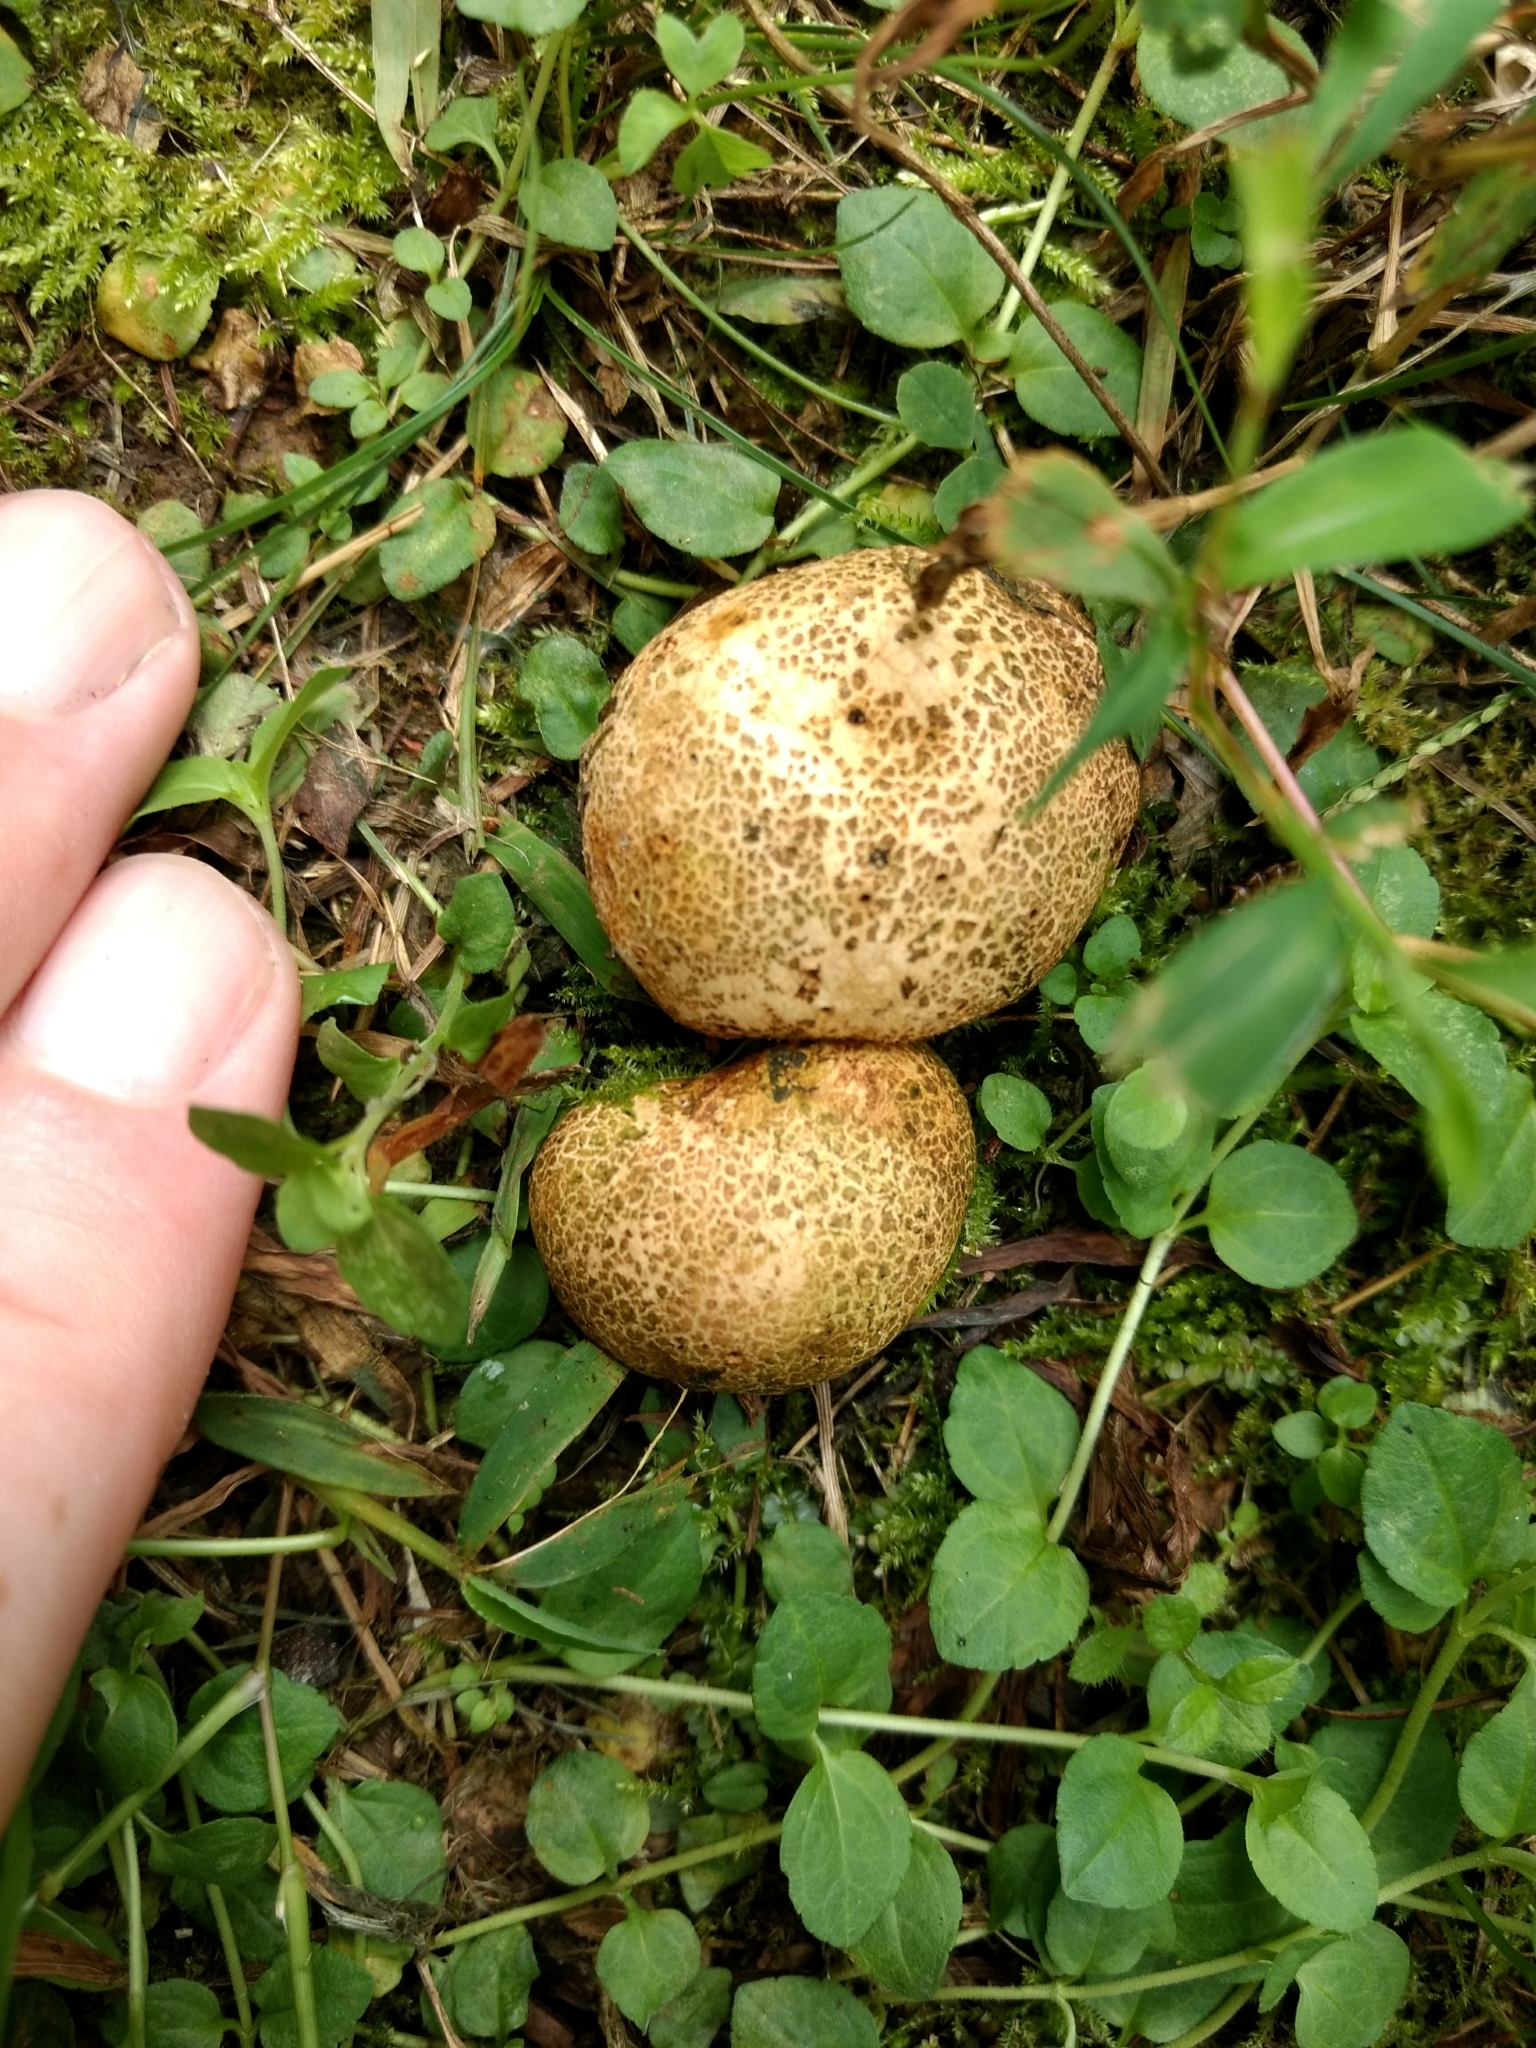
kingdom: Fungi
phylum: Basidiomycota
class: Agaricomycetes
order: Boletales
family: Sclerodermataceae
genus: Scleroderma
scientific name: Scleroderma citrinum
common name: Common earthball
